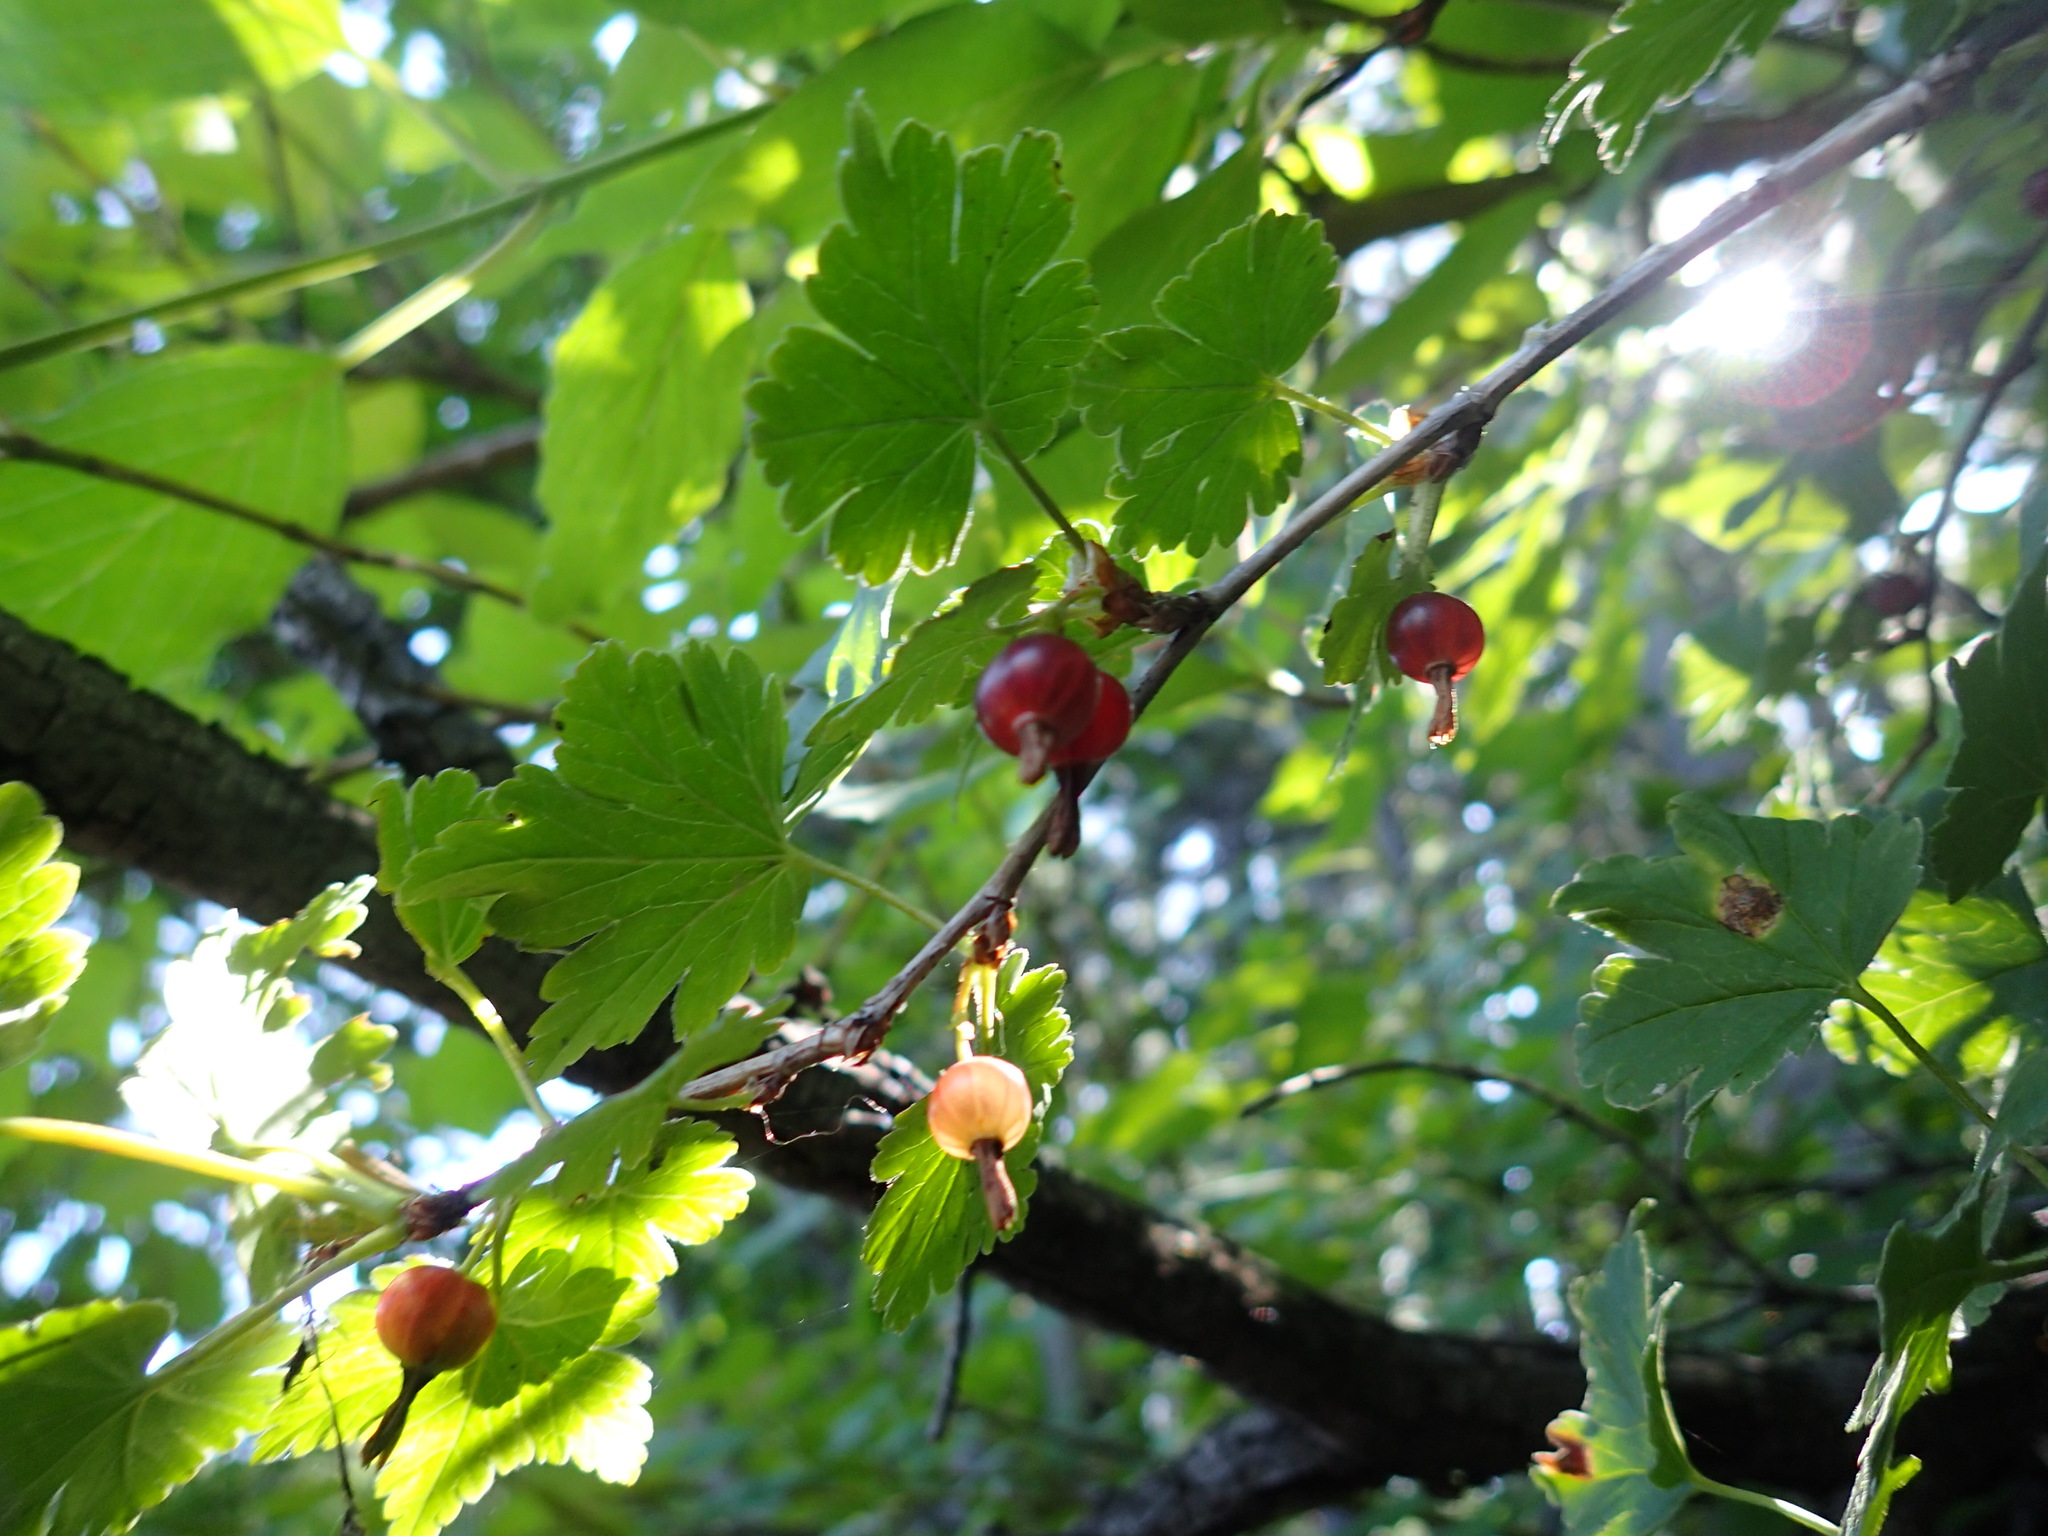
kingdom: Plantae
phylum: Tracheophyta
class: Magnoliopsida
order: Saxifragales
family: Grossulariaceae
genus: Ribes
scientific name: Ribes uva-crispa
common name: Gooseberry
